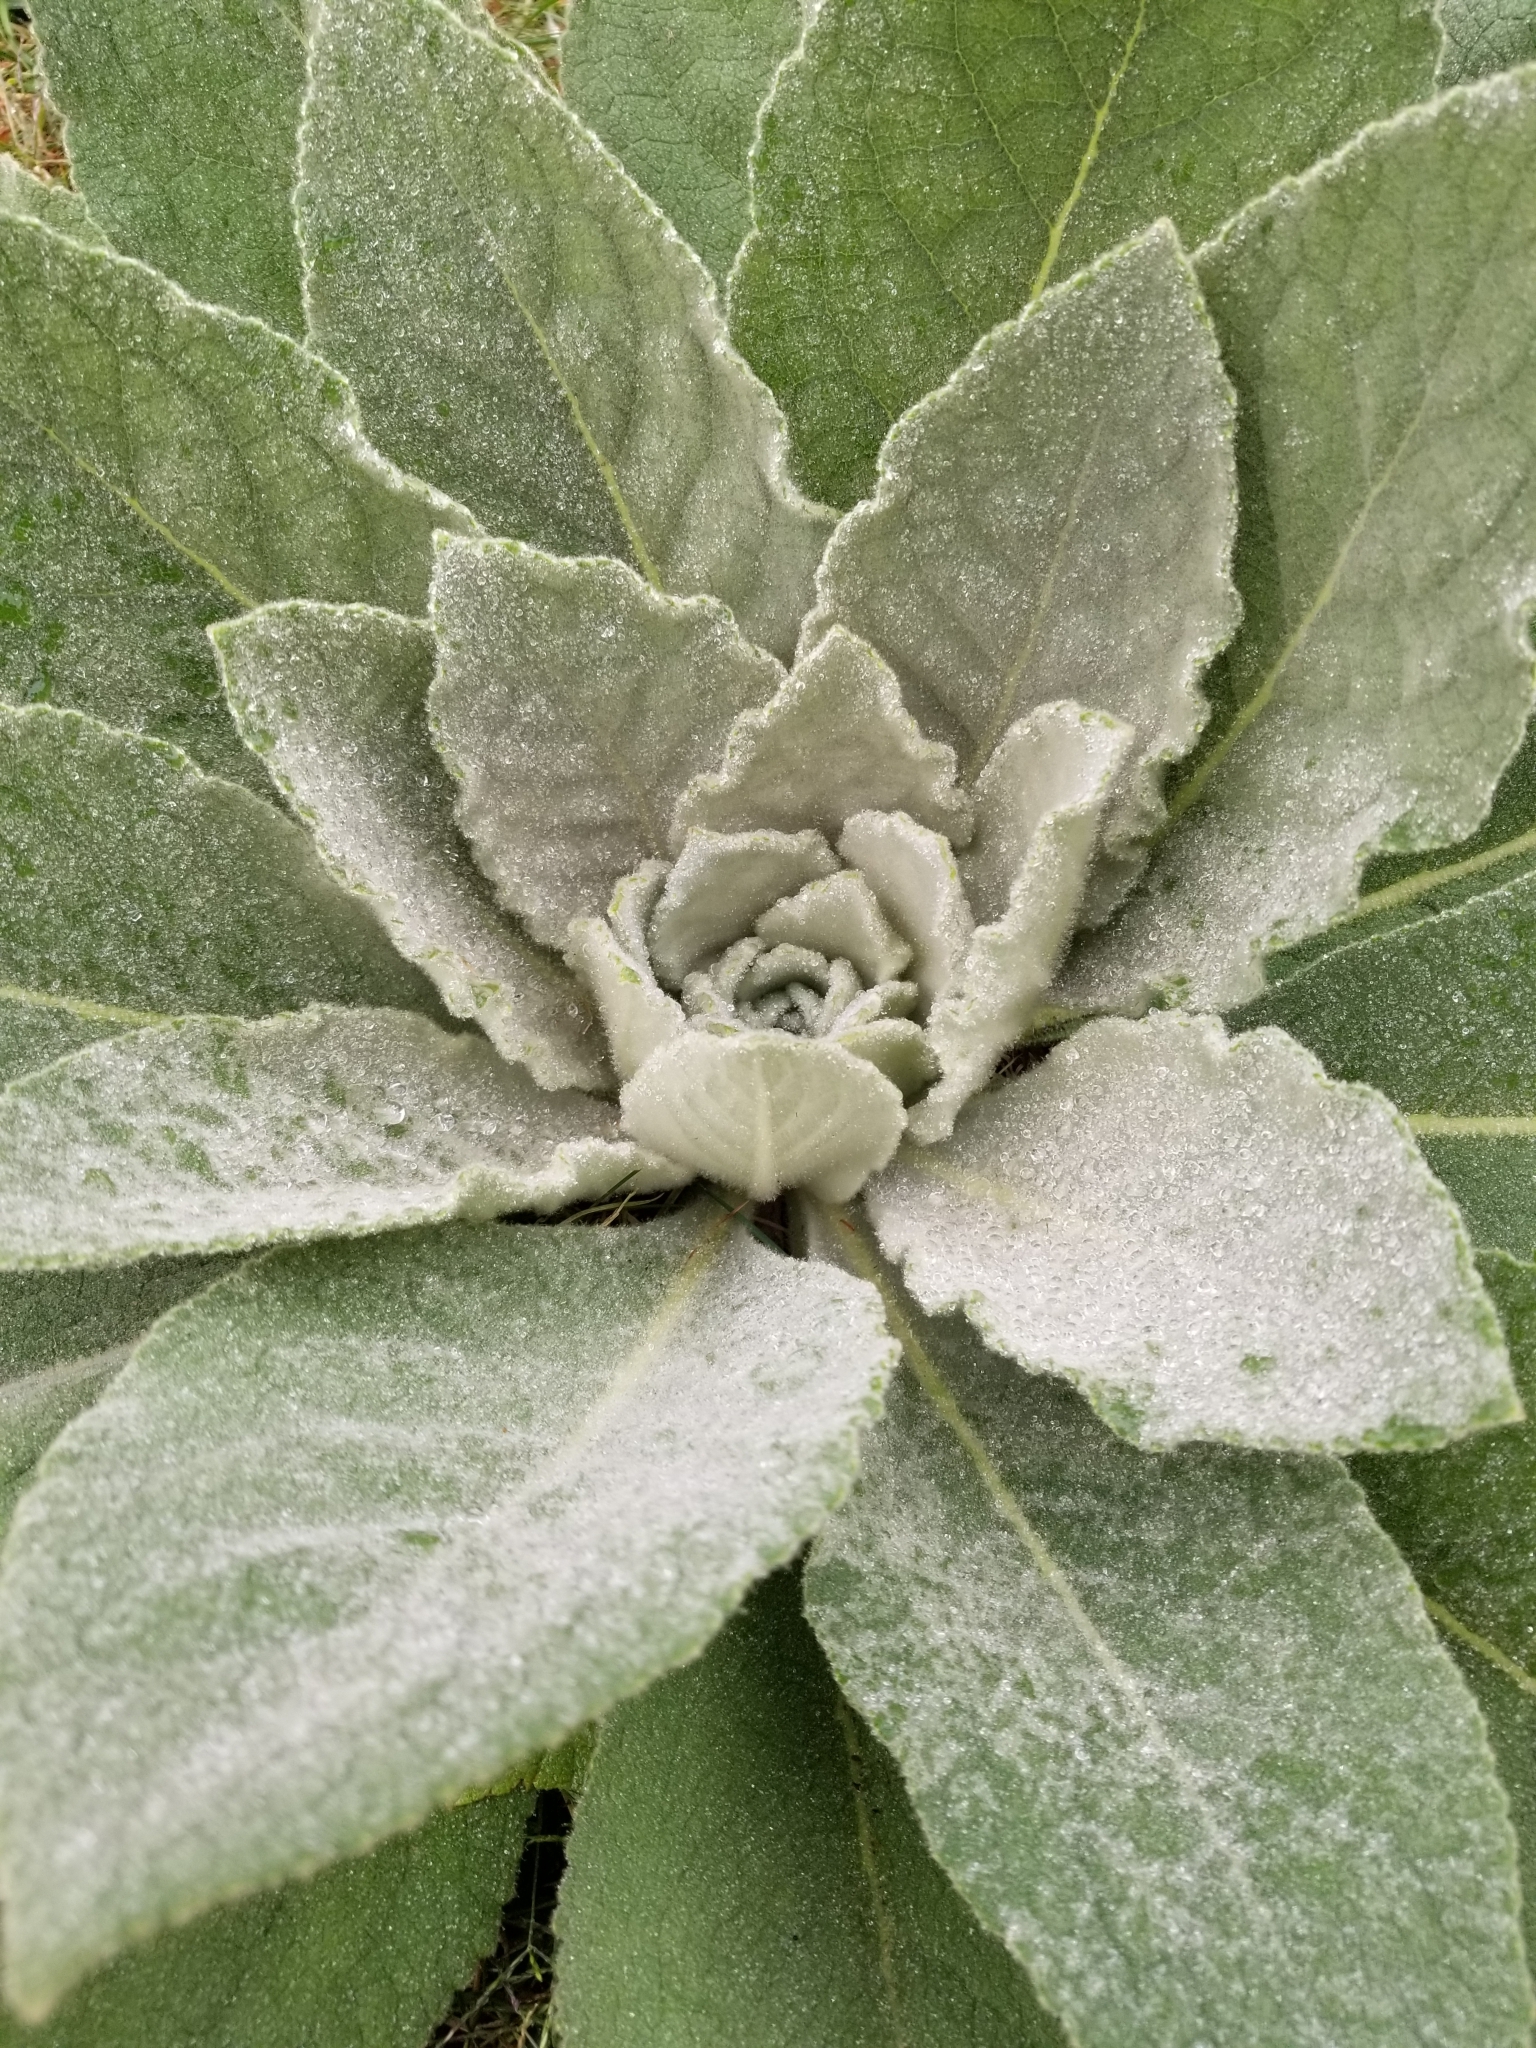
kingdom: Plantae
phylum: Tracheophyta
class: Magnoliopsida
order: Lamiales
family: Scrophulariaceae
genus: Verbascum
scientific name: Verbascum thapsus
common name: Common mullein
